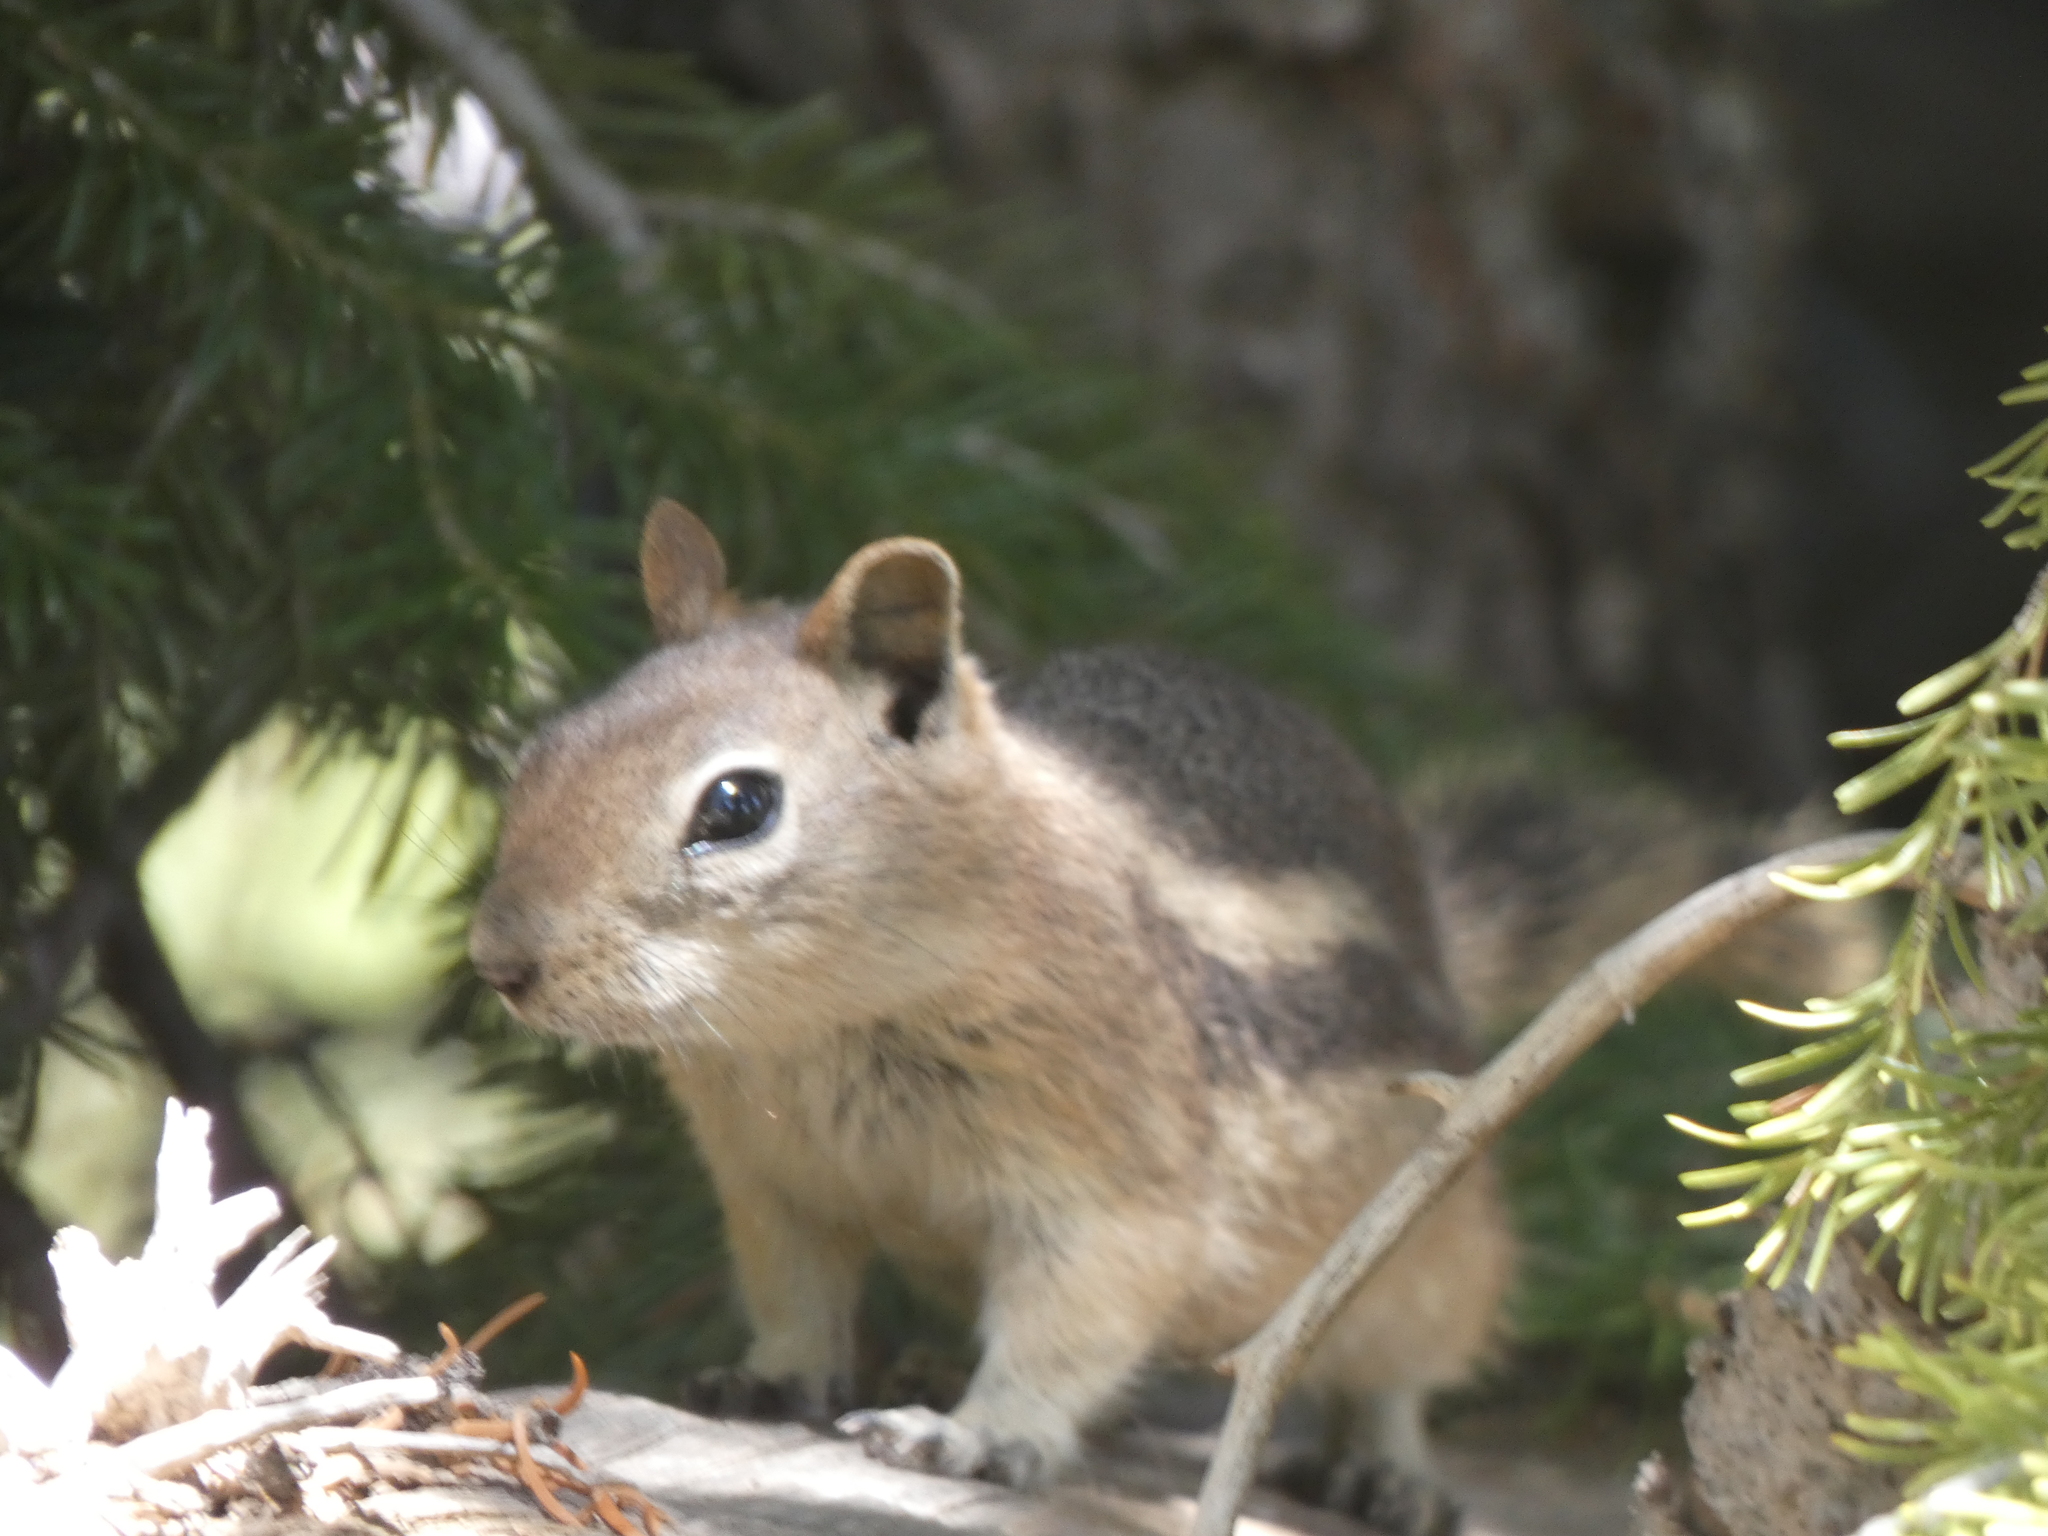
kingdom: Animalia
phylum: Chordata
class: Mammalia
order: Rodentia
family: Sciuridae
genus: Callospermophilus
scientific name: Callospermophilus lateralis
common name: Golden-mantled ground squirrel
